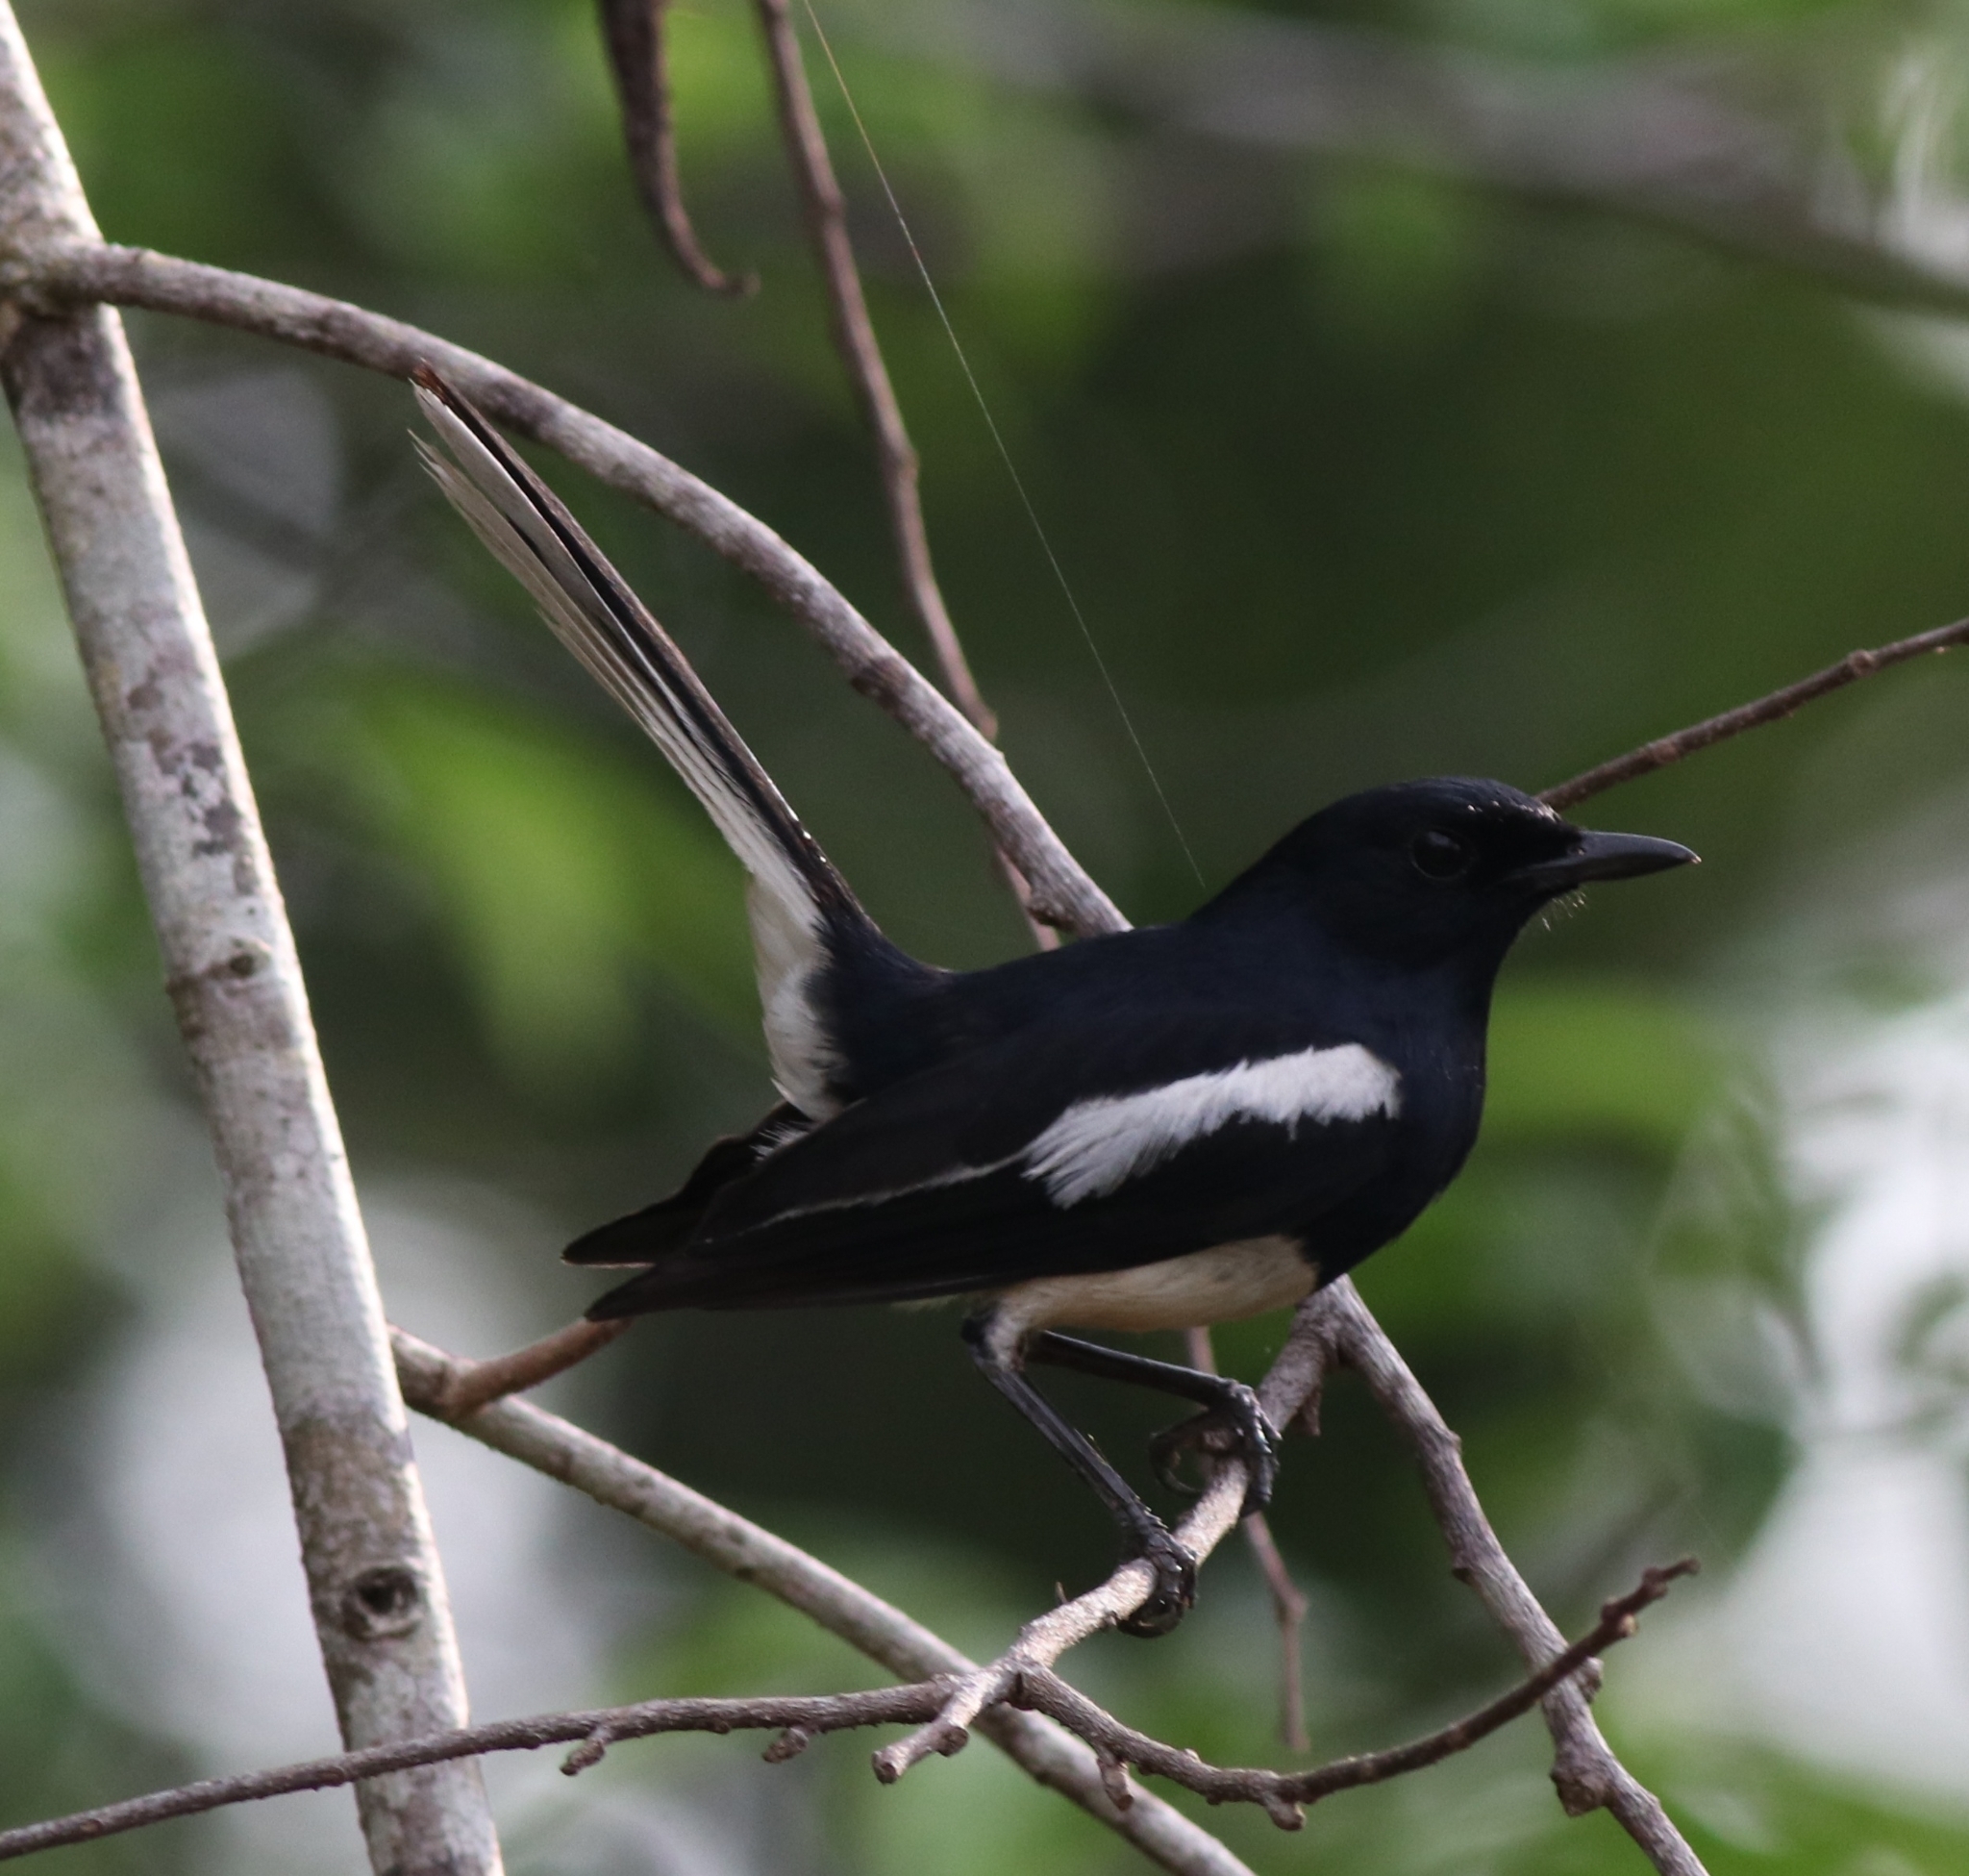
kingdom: Animalia
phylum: Chordata
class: Aves
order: Passeriformes
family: Muscicapidae
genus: Copsychus
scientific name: Copsychus saularis
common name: Oriental magpie-robin
